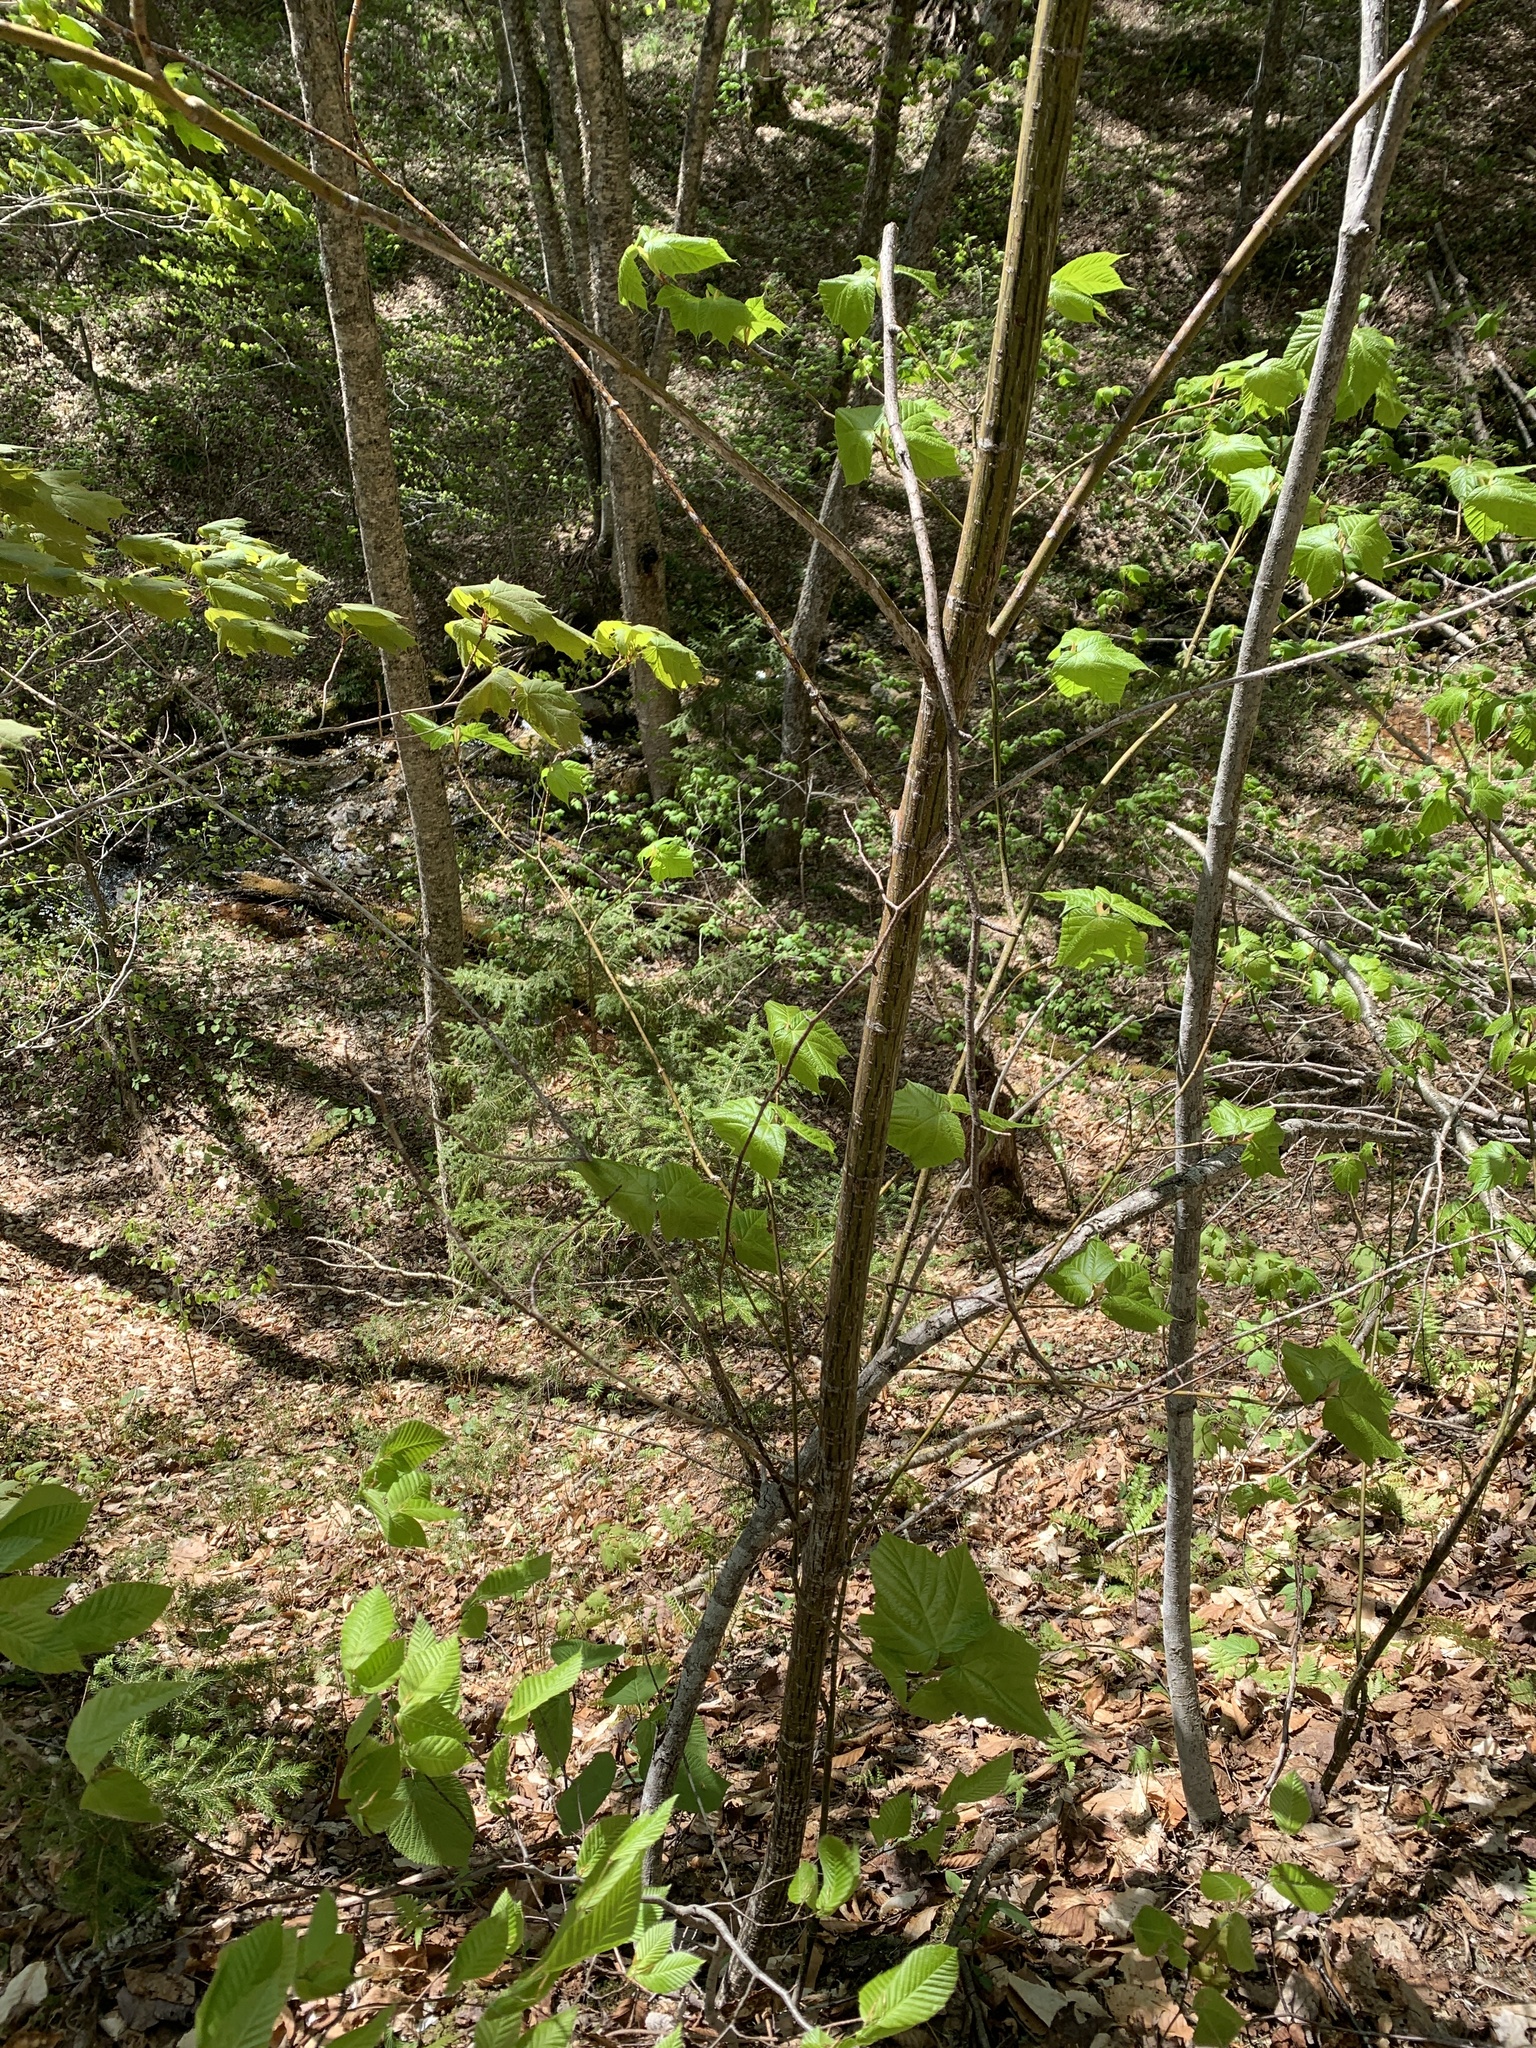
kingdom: Plantae
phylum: Tracheophyta
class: Magnoliopsida
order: Sapindales
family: Sapindaceae
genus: Acer
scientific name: Acer pensylvanicum
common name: Moosewood
